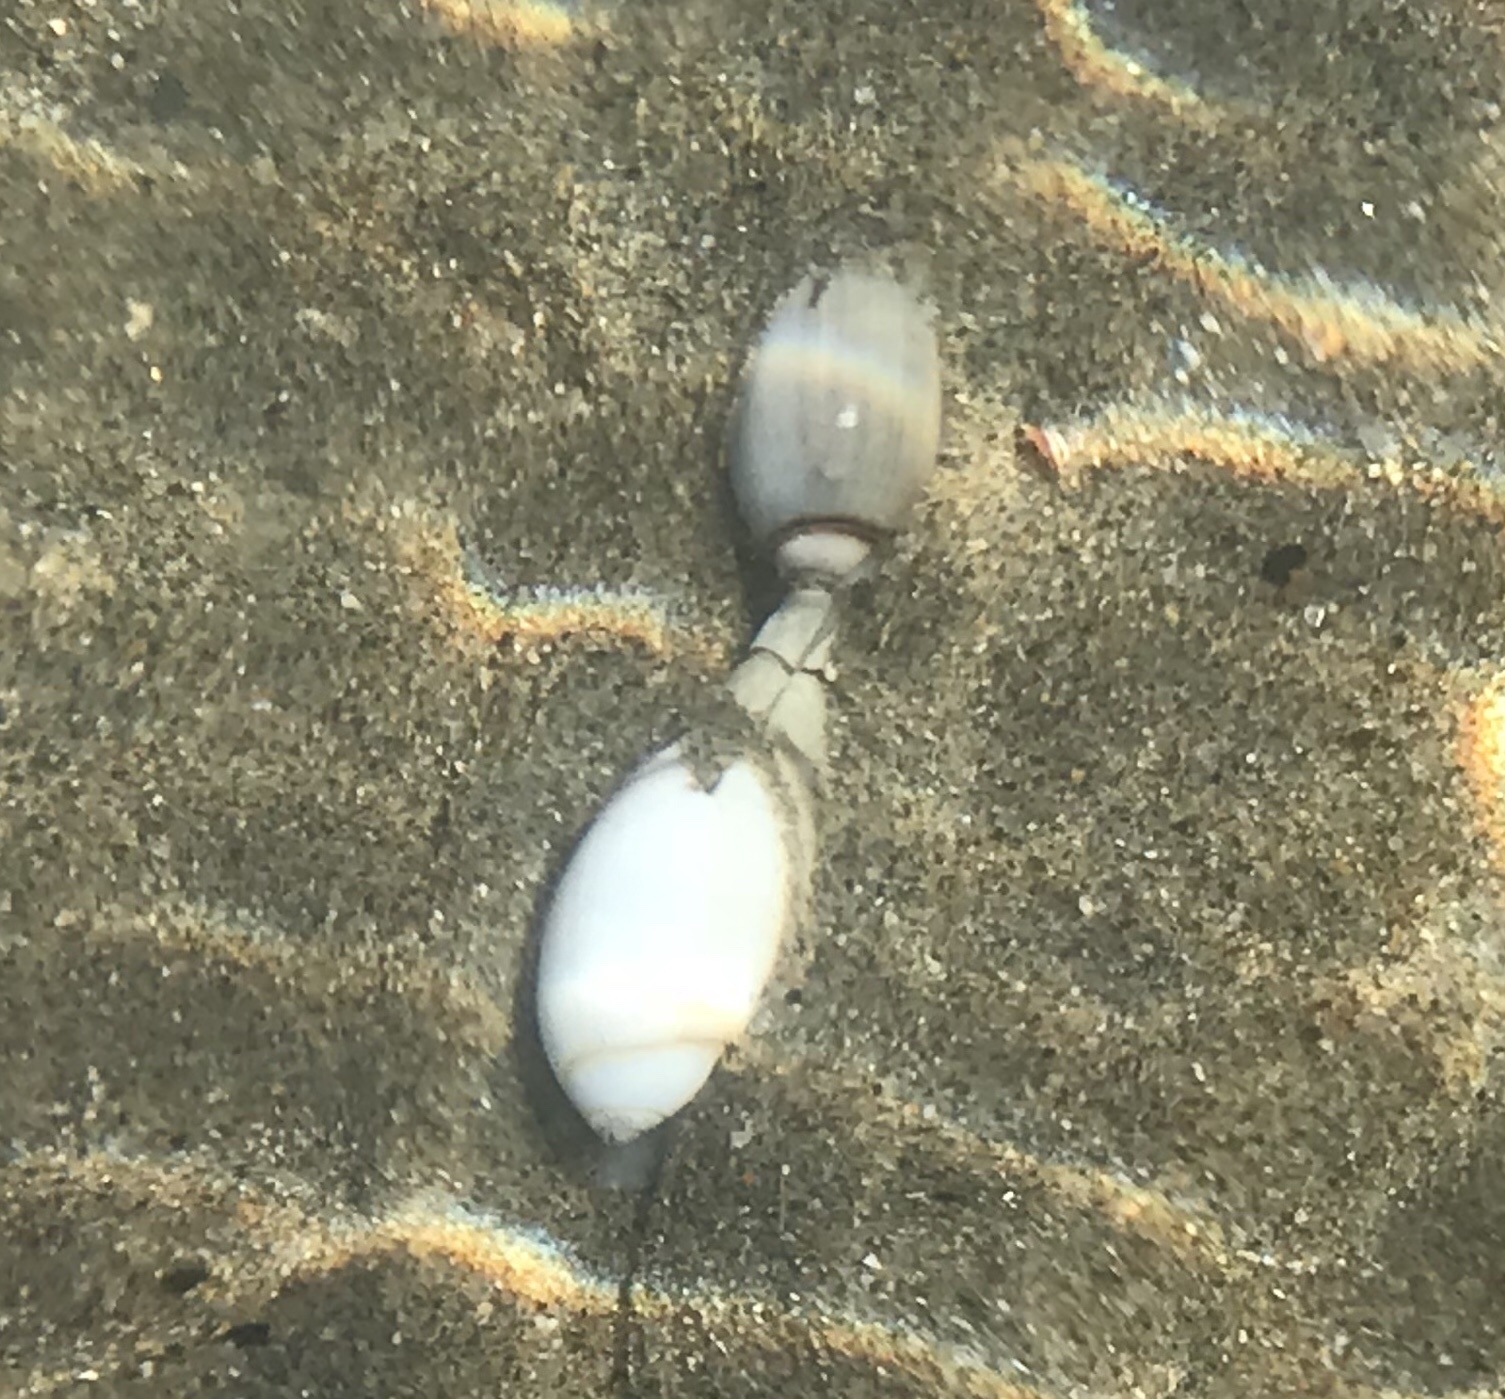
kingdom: Animalia
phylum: Mollusca
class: Gastropoda
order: Neogastropoda
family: Olividae
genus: Callianax
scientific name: Callianax biplicata
